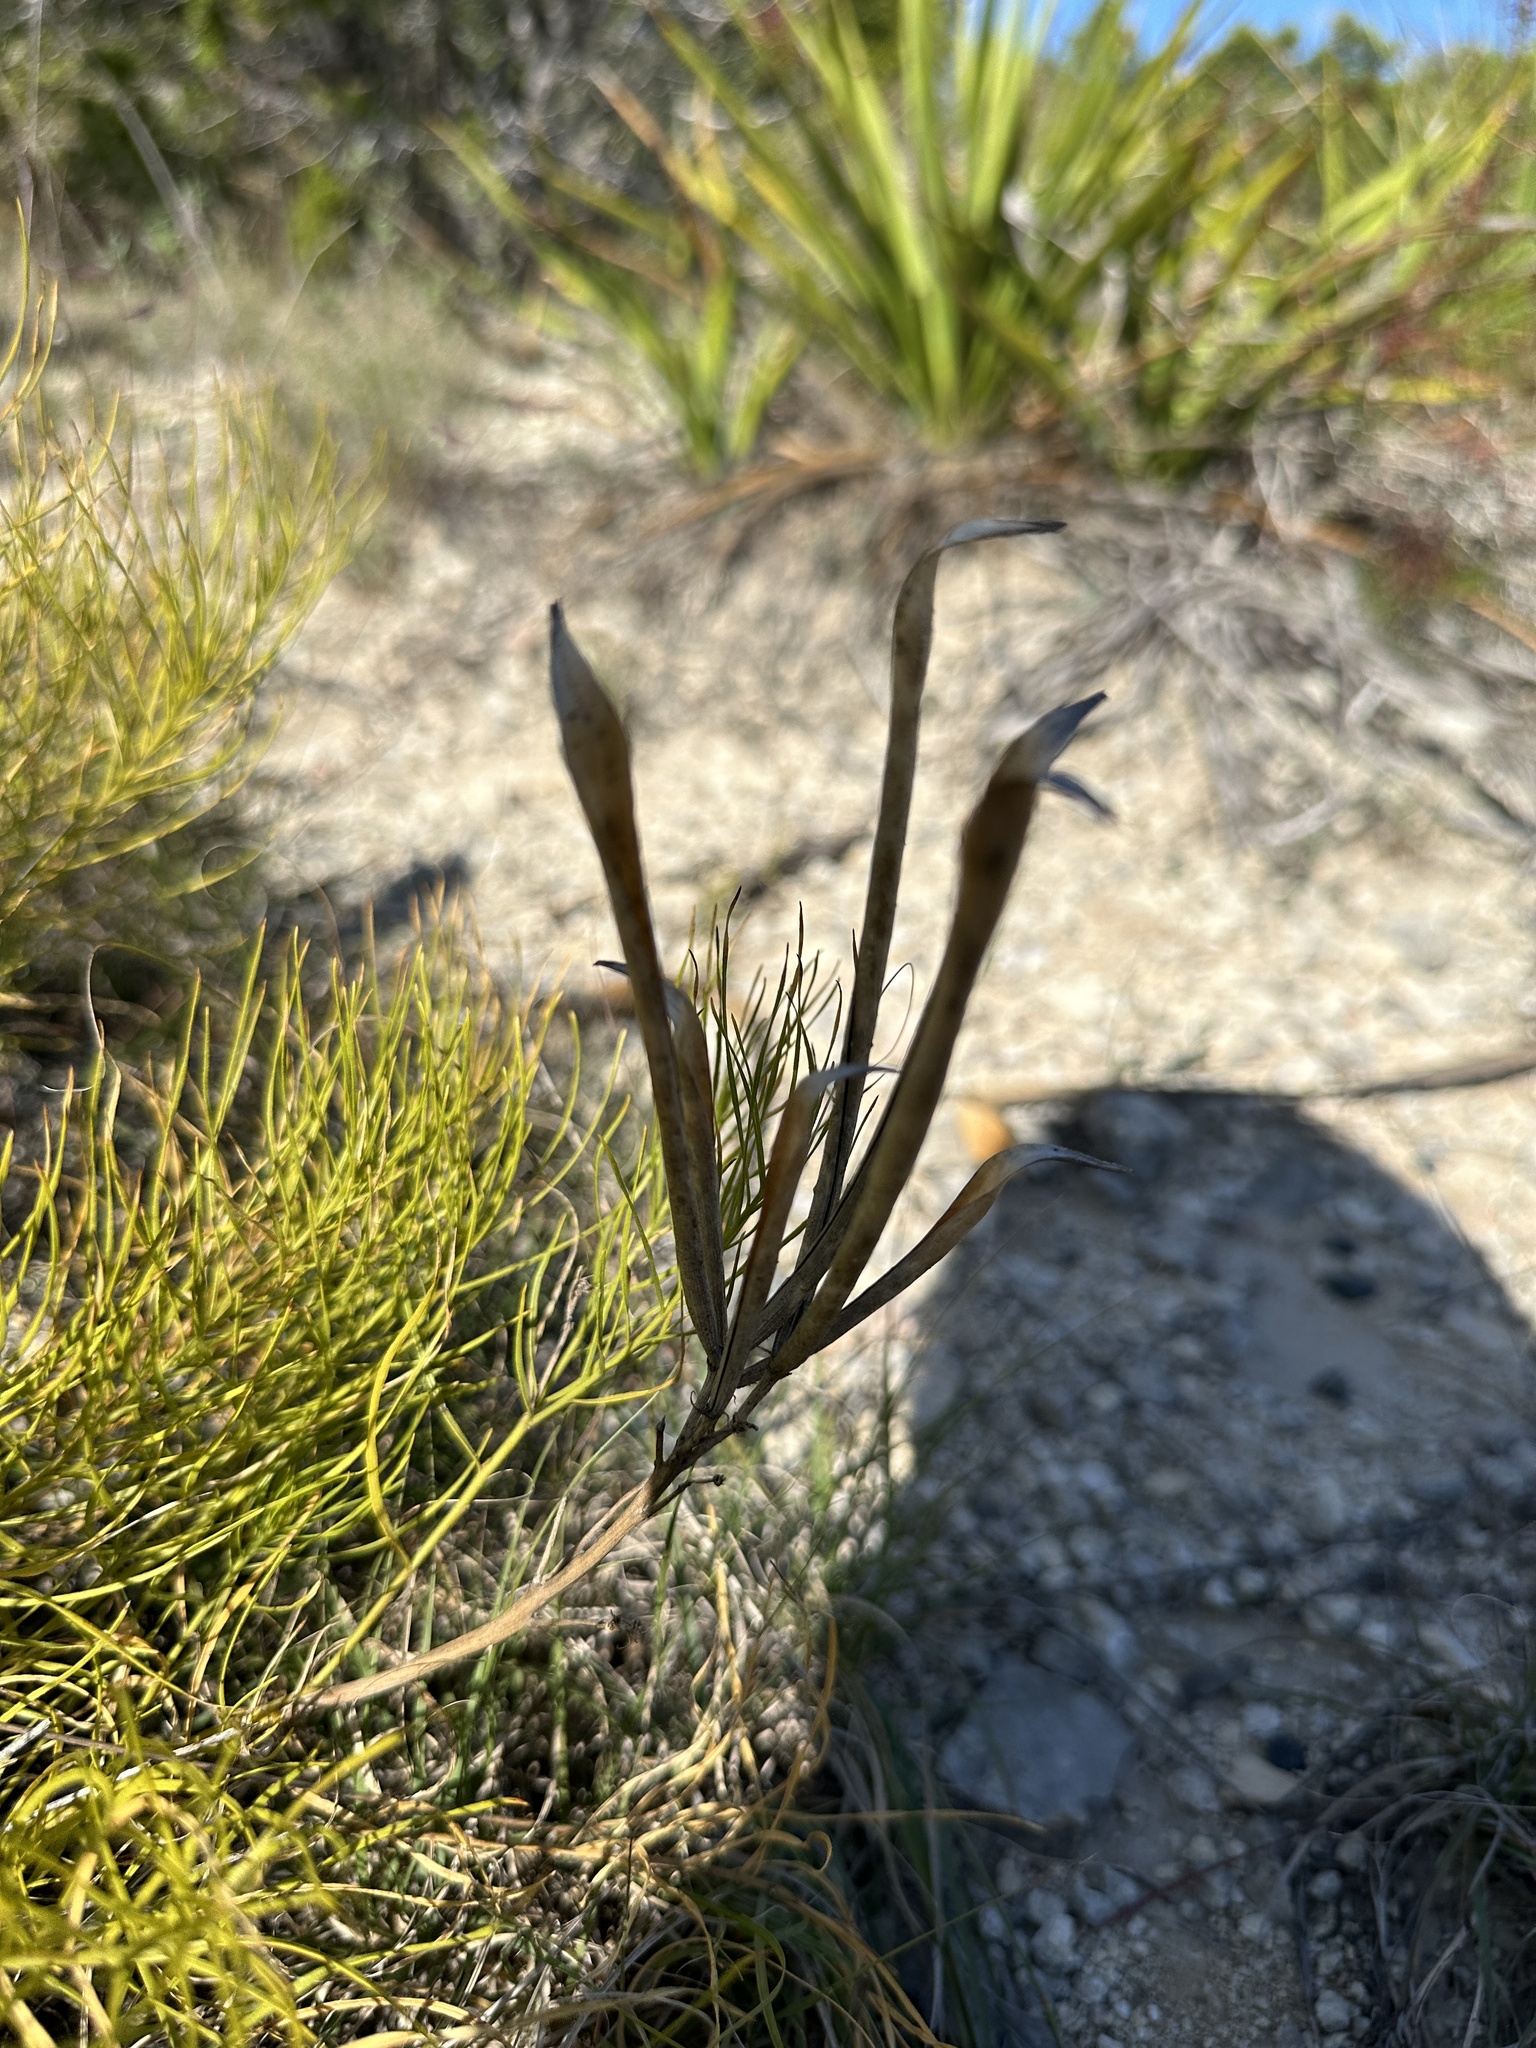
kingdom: Plantae
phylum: Tracheophyta
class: Magnoliopsida
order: Gentianales
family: Apocynaceae
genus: Amsonia
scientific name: Amsonia longiflora
